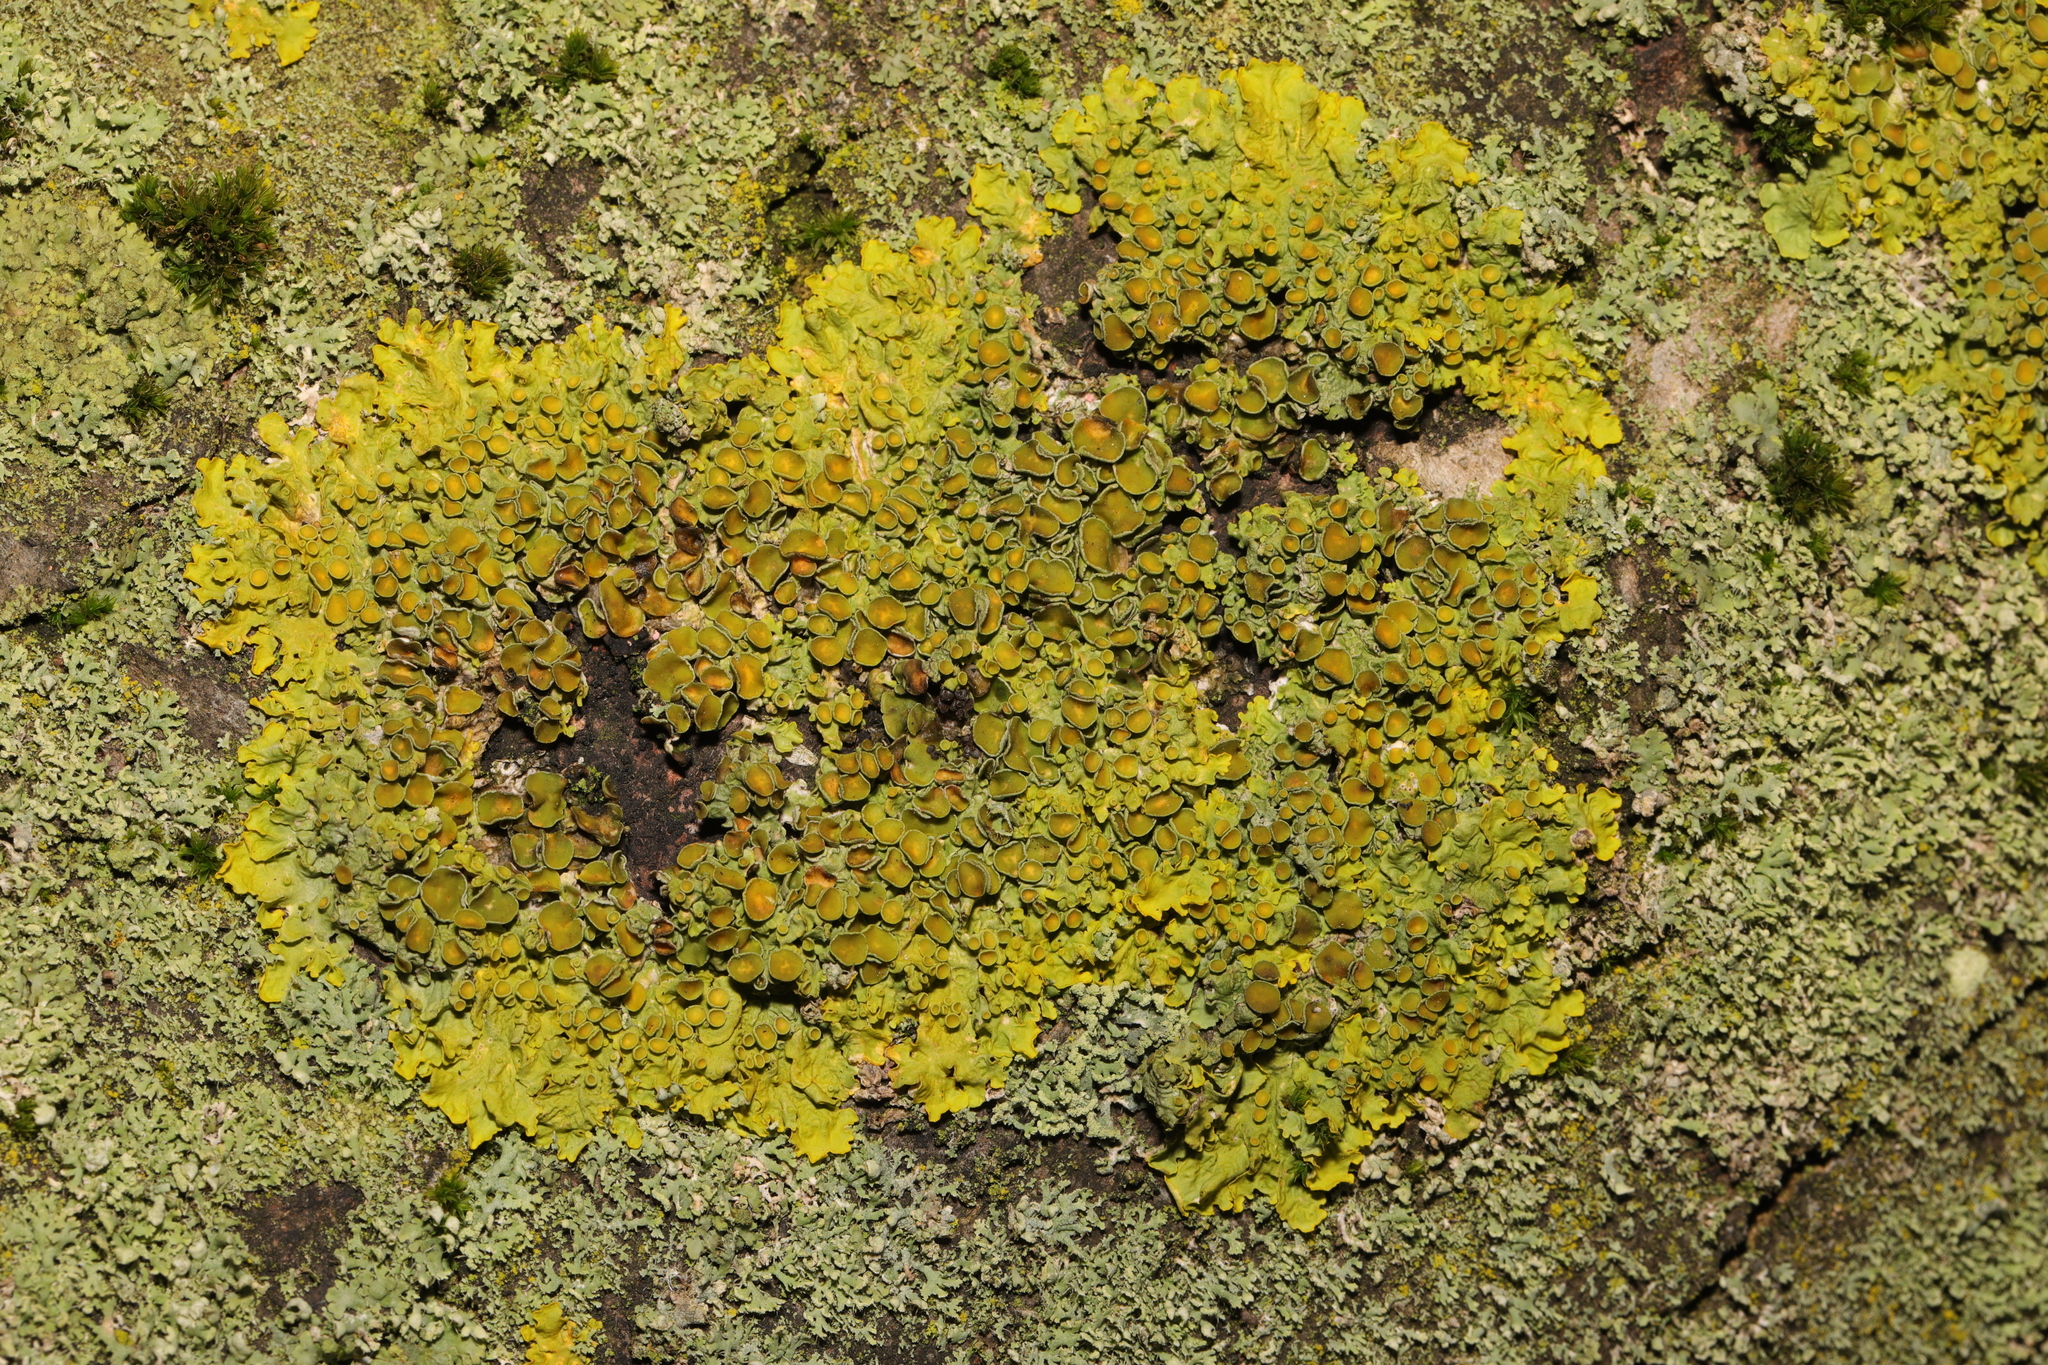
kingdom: Fungi
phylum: Ascomycota
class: Lecanoromycetes
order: Teloschistales
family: Teloschistaceae
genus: Xanthoria
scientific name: Xanthoria parietina
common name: Common orange lichen
